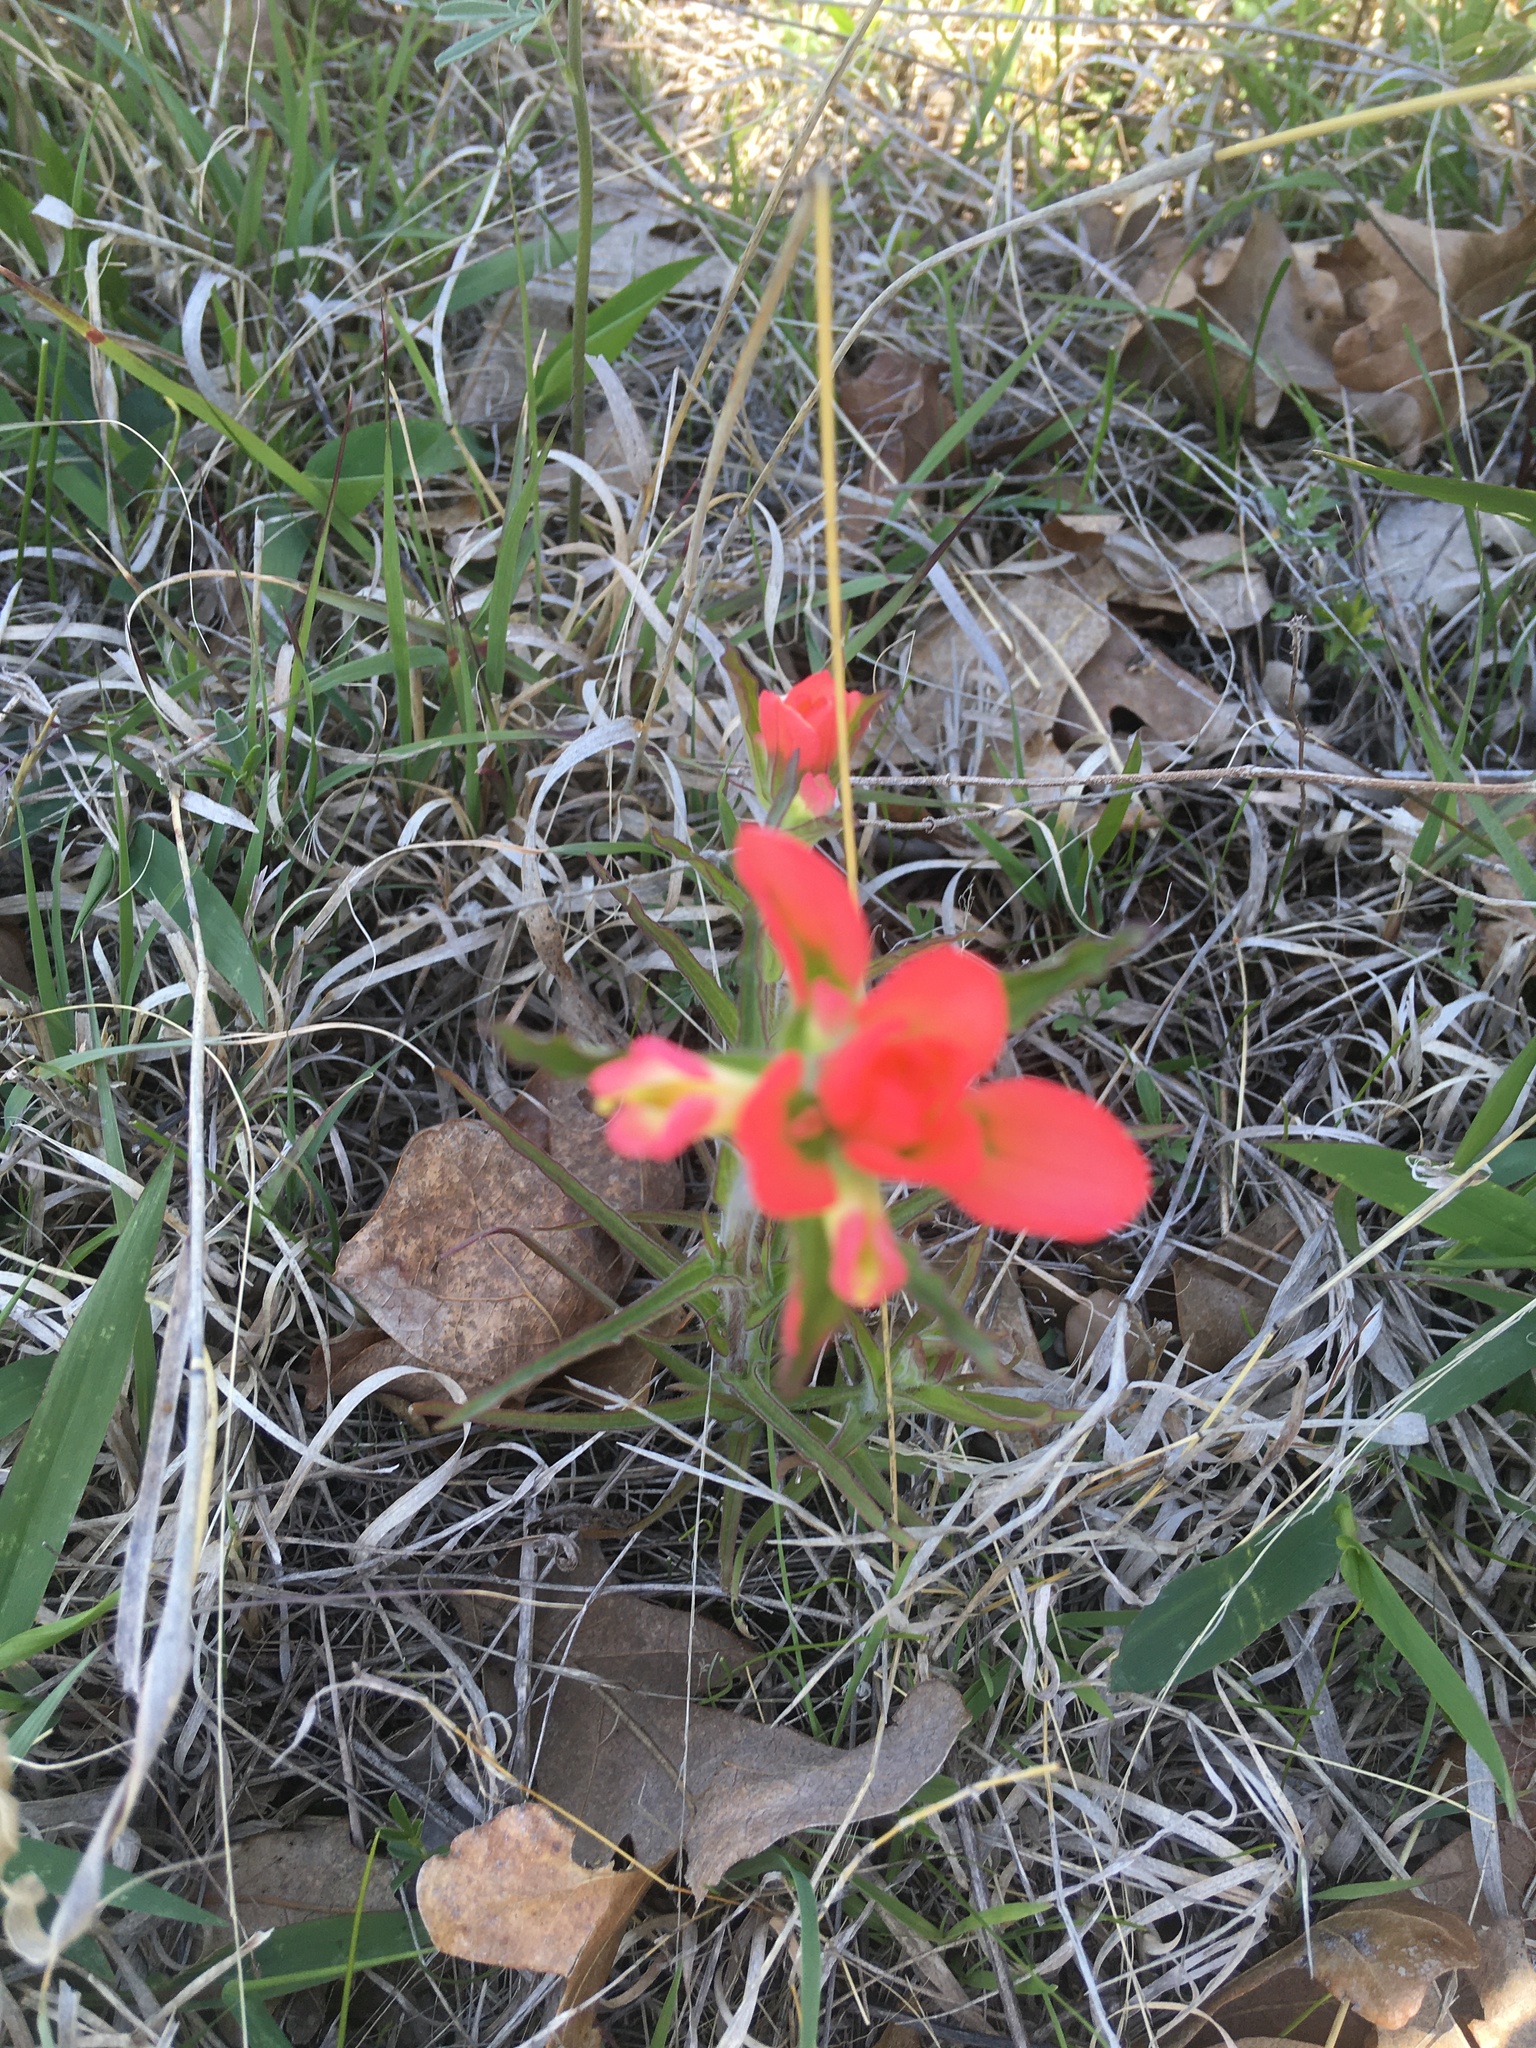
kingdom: Plantae
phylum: Tracheophyta
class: Magnoliopsida
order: Lamiales
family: Orobanchaceae
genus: Castilleja
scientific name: Castilleja indivisa
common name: Texas paintbrush
